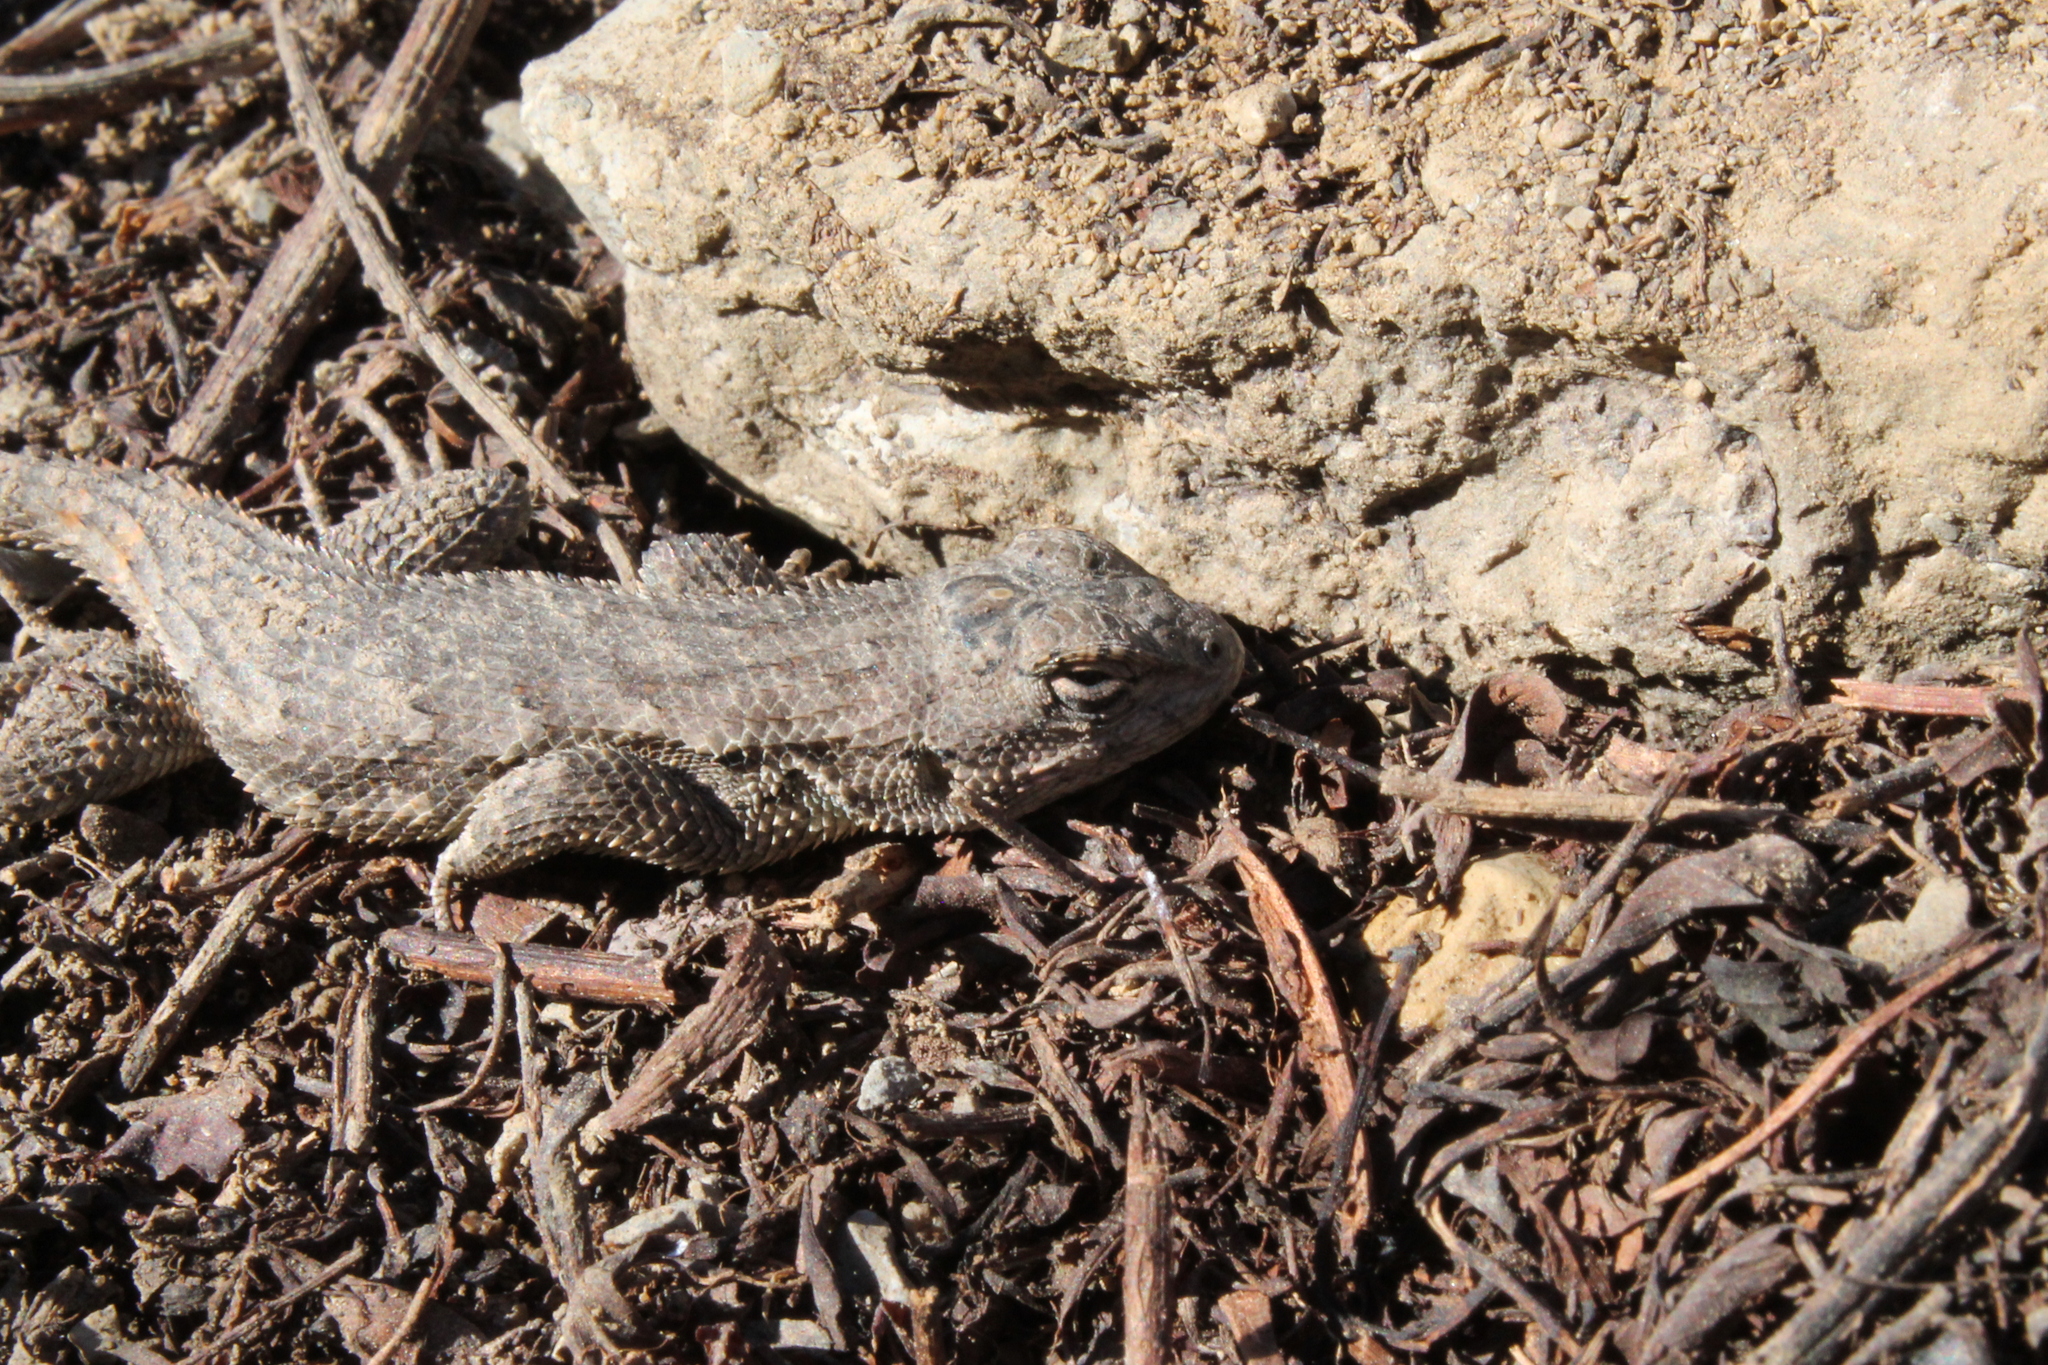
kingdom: Animalia
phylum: Chordata
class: Squamata
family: Phrynosomatidae
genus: Sceloporus
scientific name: Sceloporus undulatus
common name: Eastern fence lizard
